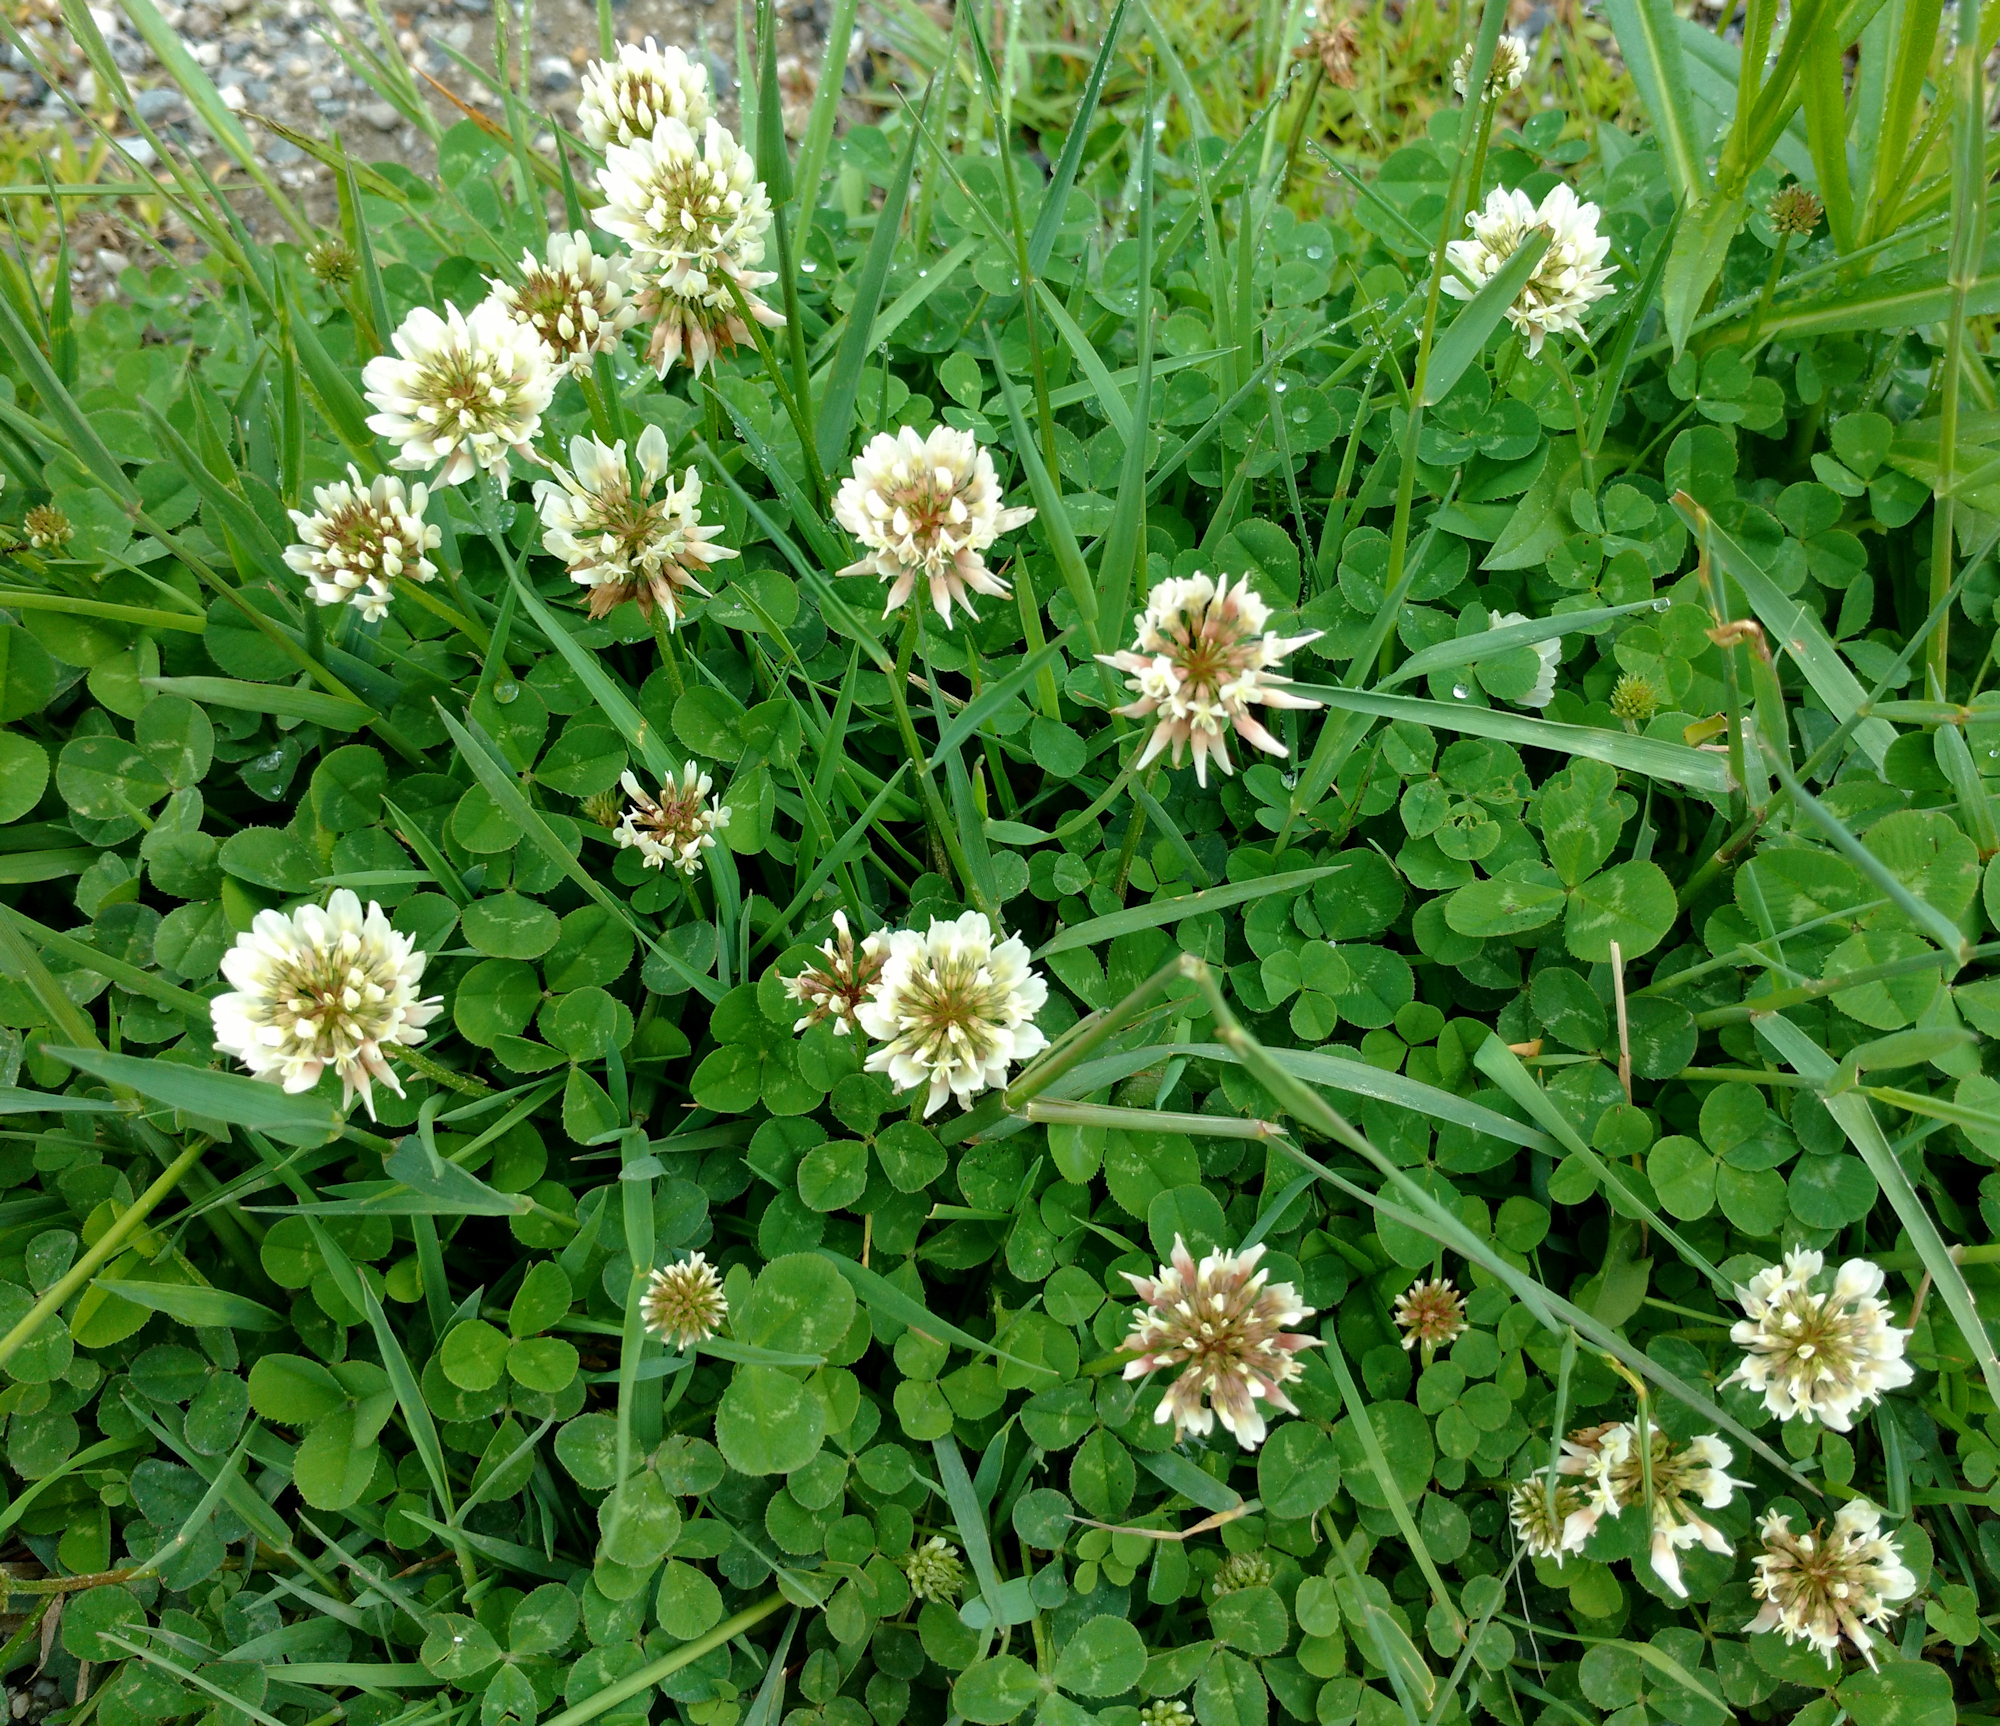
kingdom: Plantae
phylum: Tracheophyta
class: Magnoliopsida
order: Fabales
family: Fabaceae
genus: Trifolium
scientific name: Trifolium repens
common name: White clover
